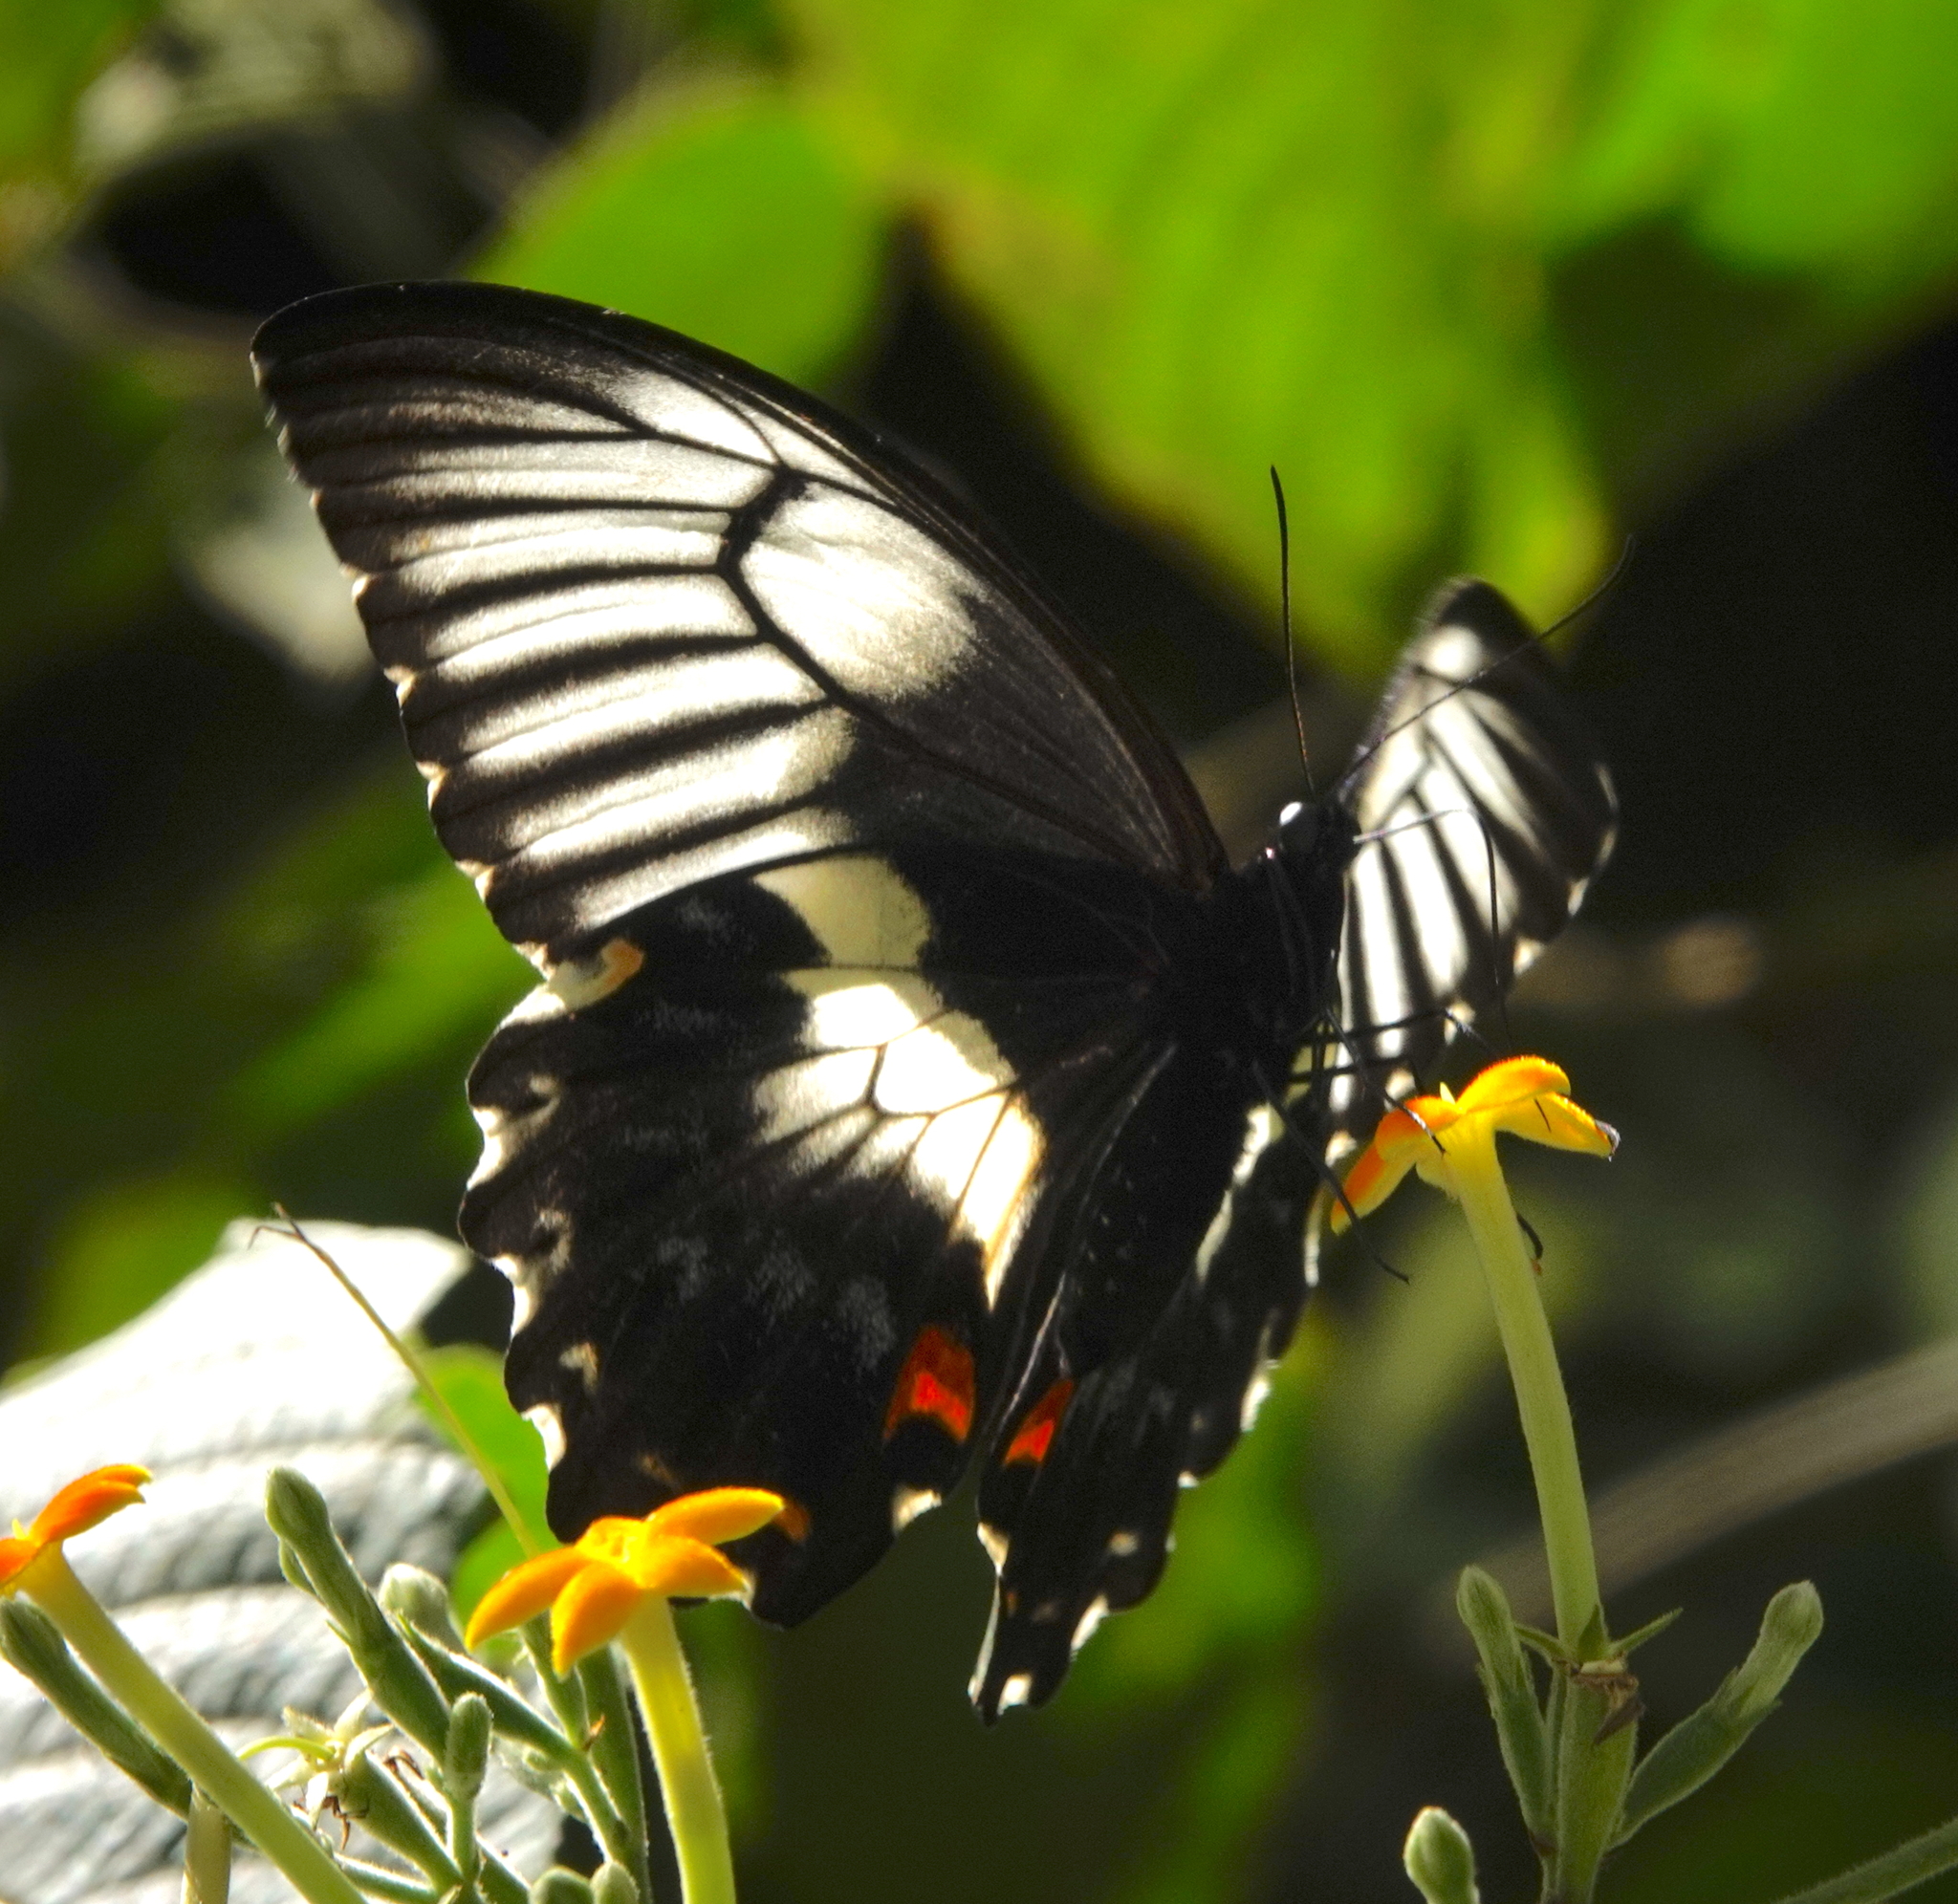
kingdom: Animalia
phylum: Arthropoda
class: Insecta
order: Lepidoptera
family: Papilionidae
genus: Papilio
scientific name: Papilio gambrisius
